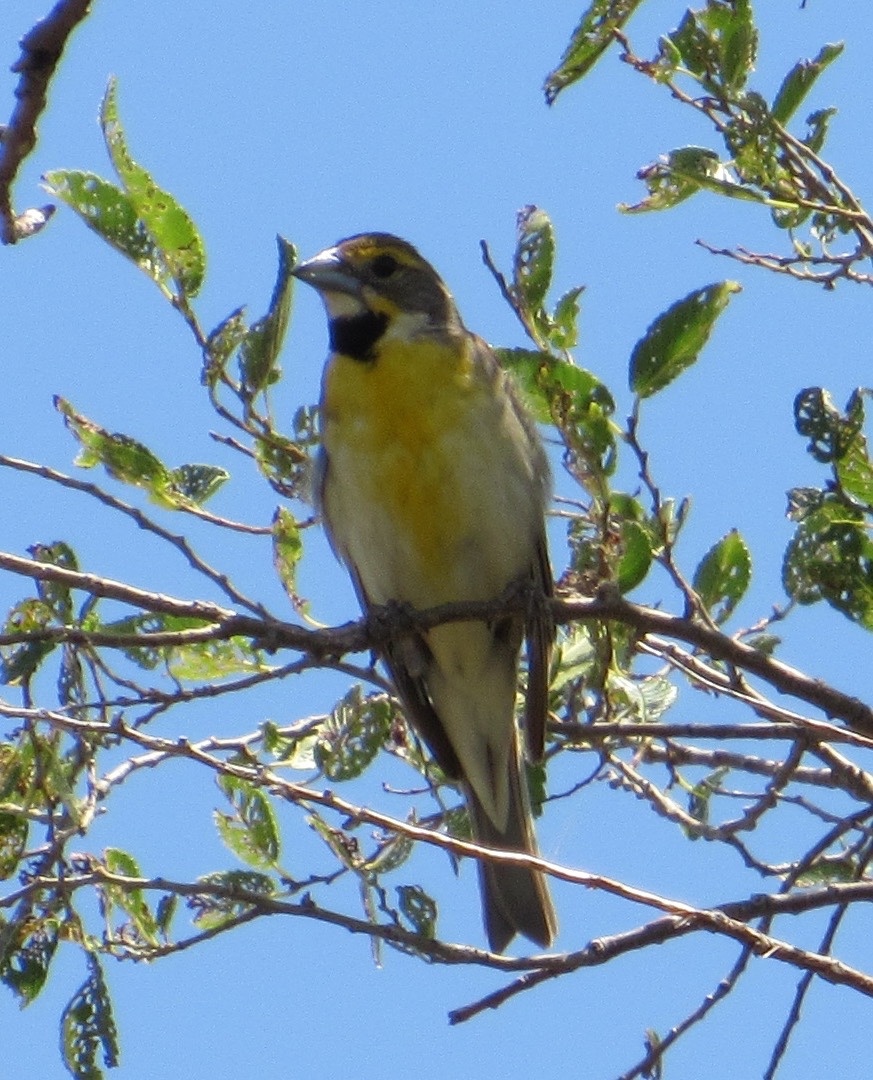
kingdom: Animalia
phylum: Chordata
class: Aves
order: Passeriformes
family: Cardinalidae
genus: Spiza
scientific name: Spiza americana
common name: Dickcissel
